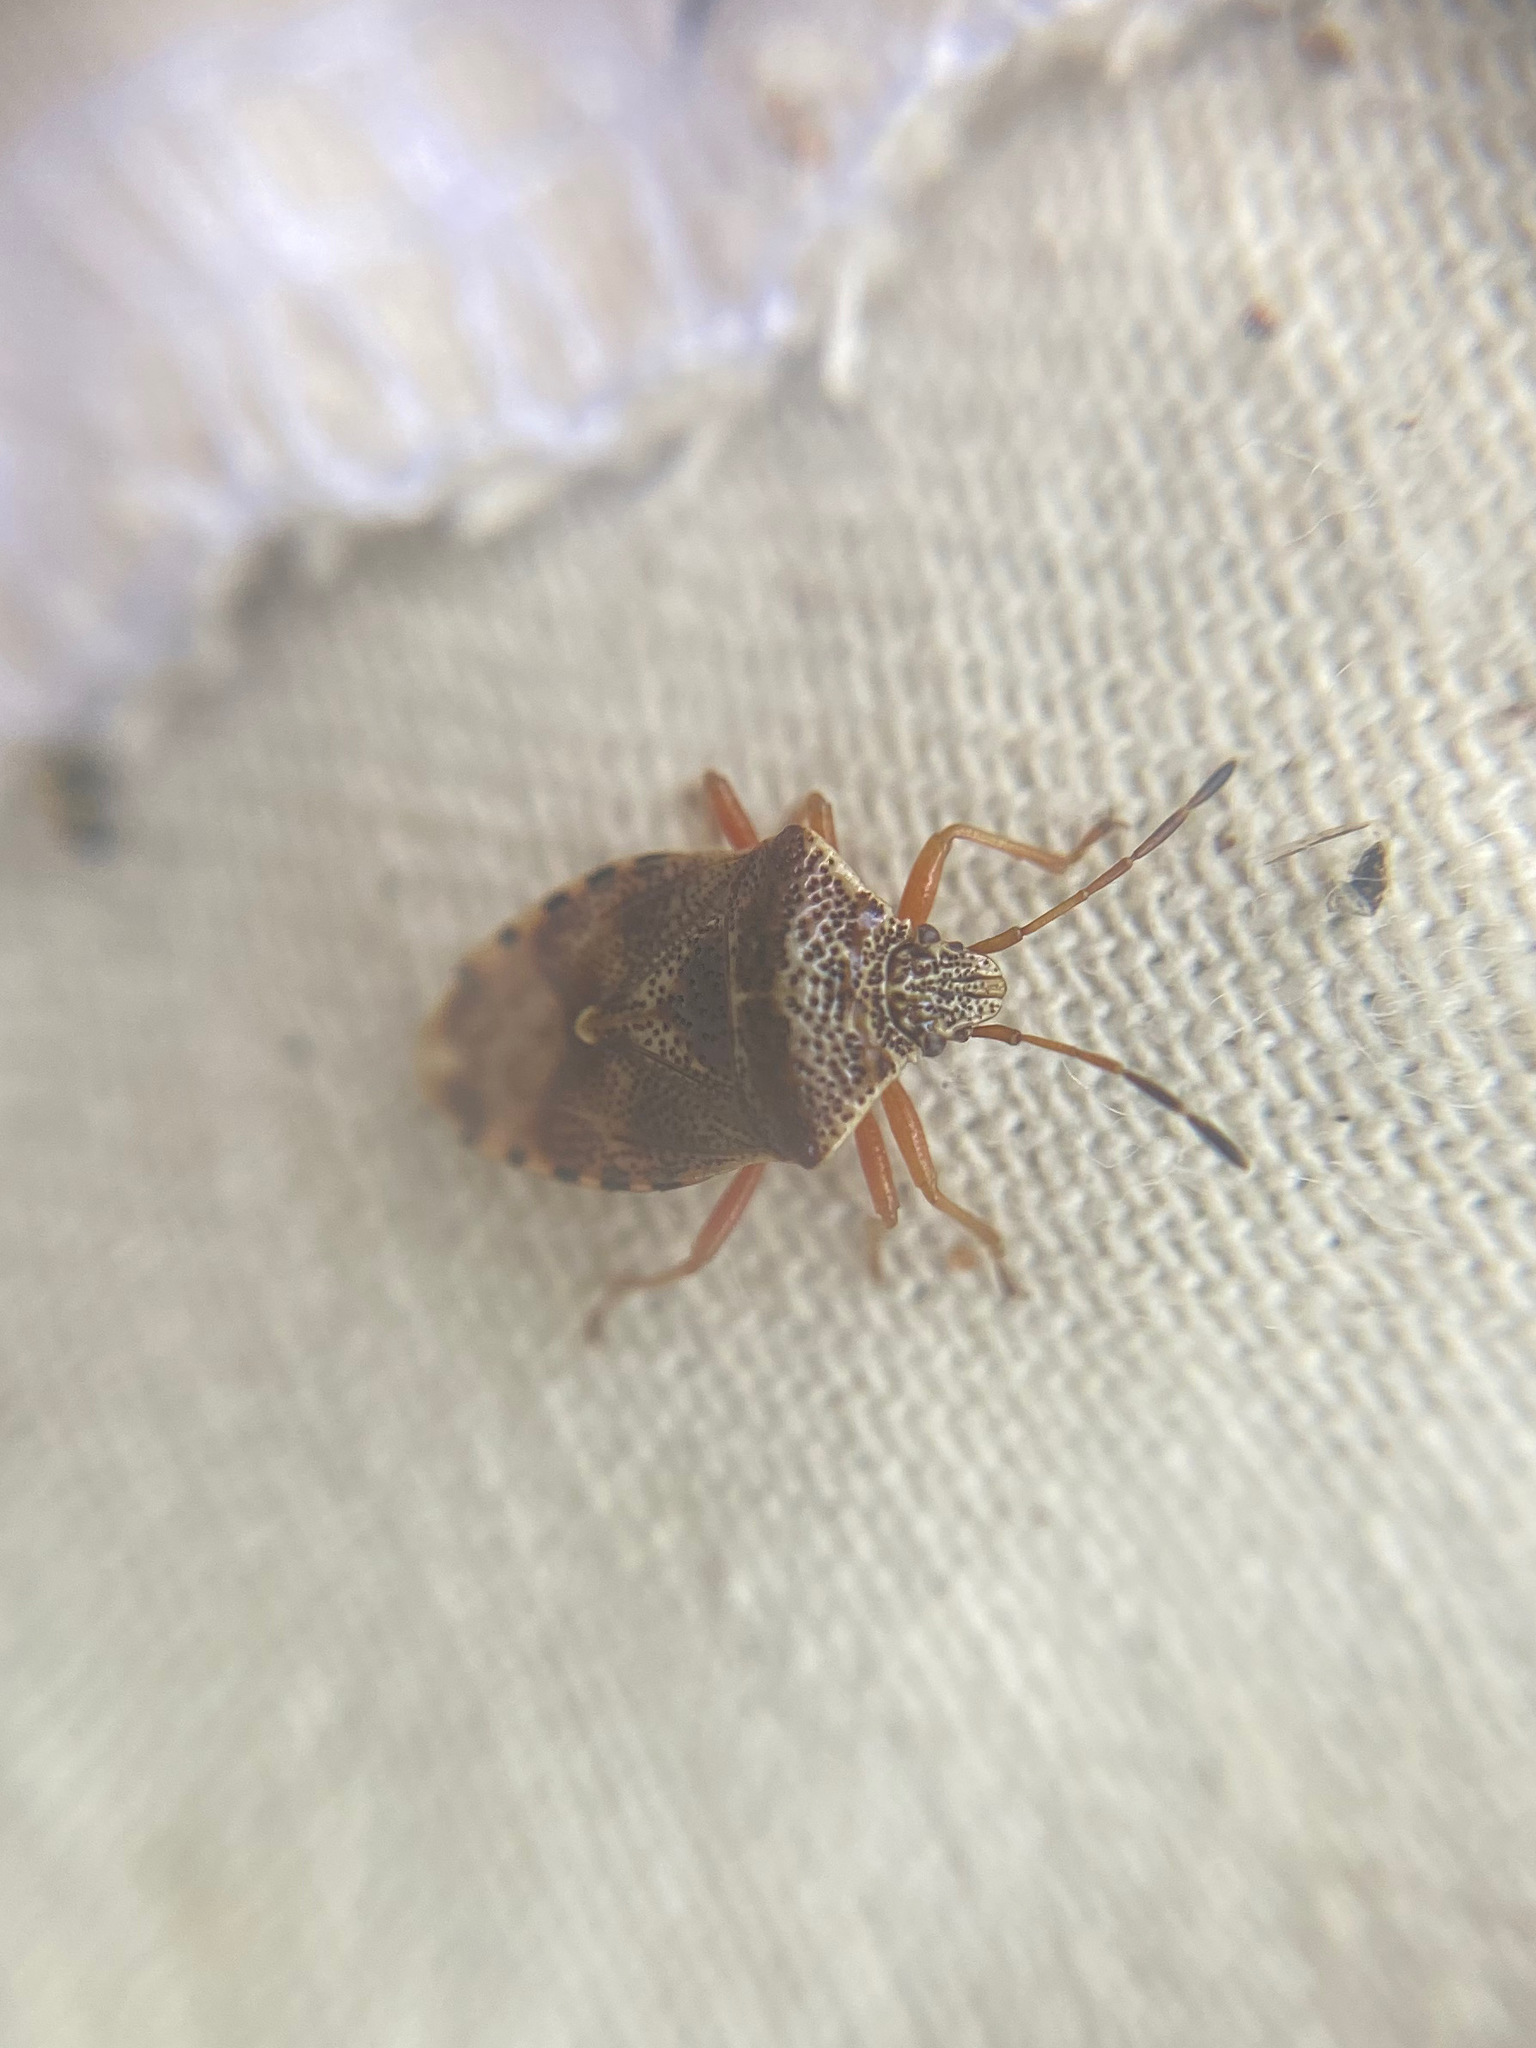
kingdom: Animalia
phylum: Arthropoda
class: Insecta
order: Hemiptera
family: Acanthosomatidae
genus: Elasmucha
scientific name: Elasmucha lateralis
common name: Shield bug
